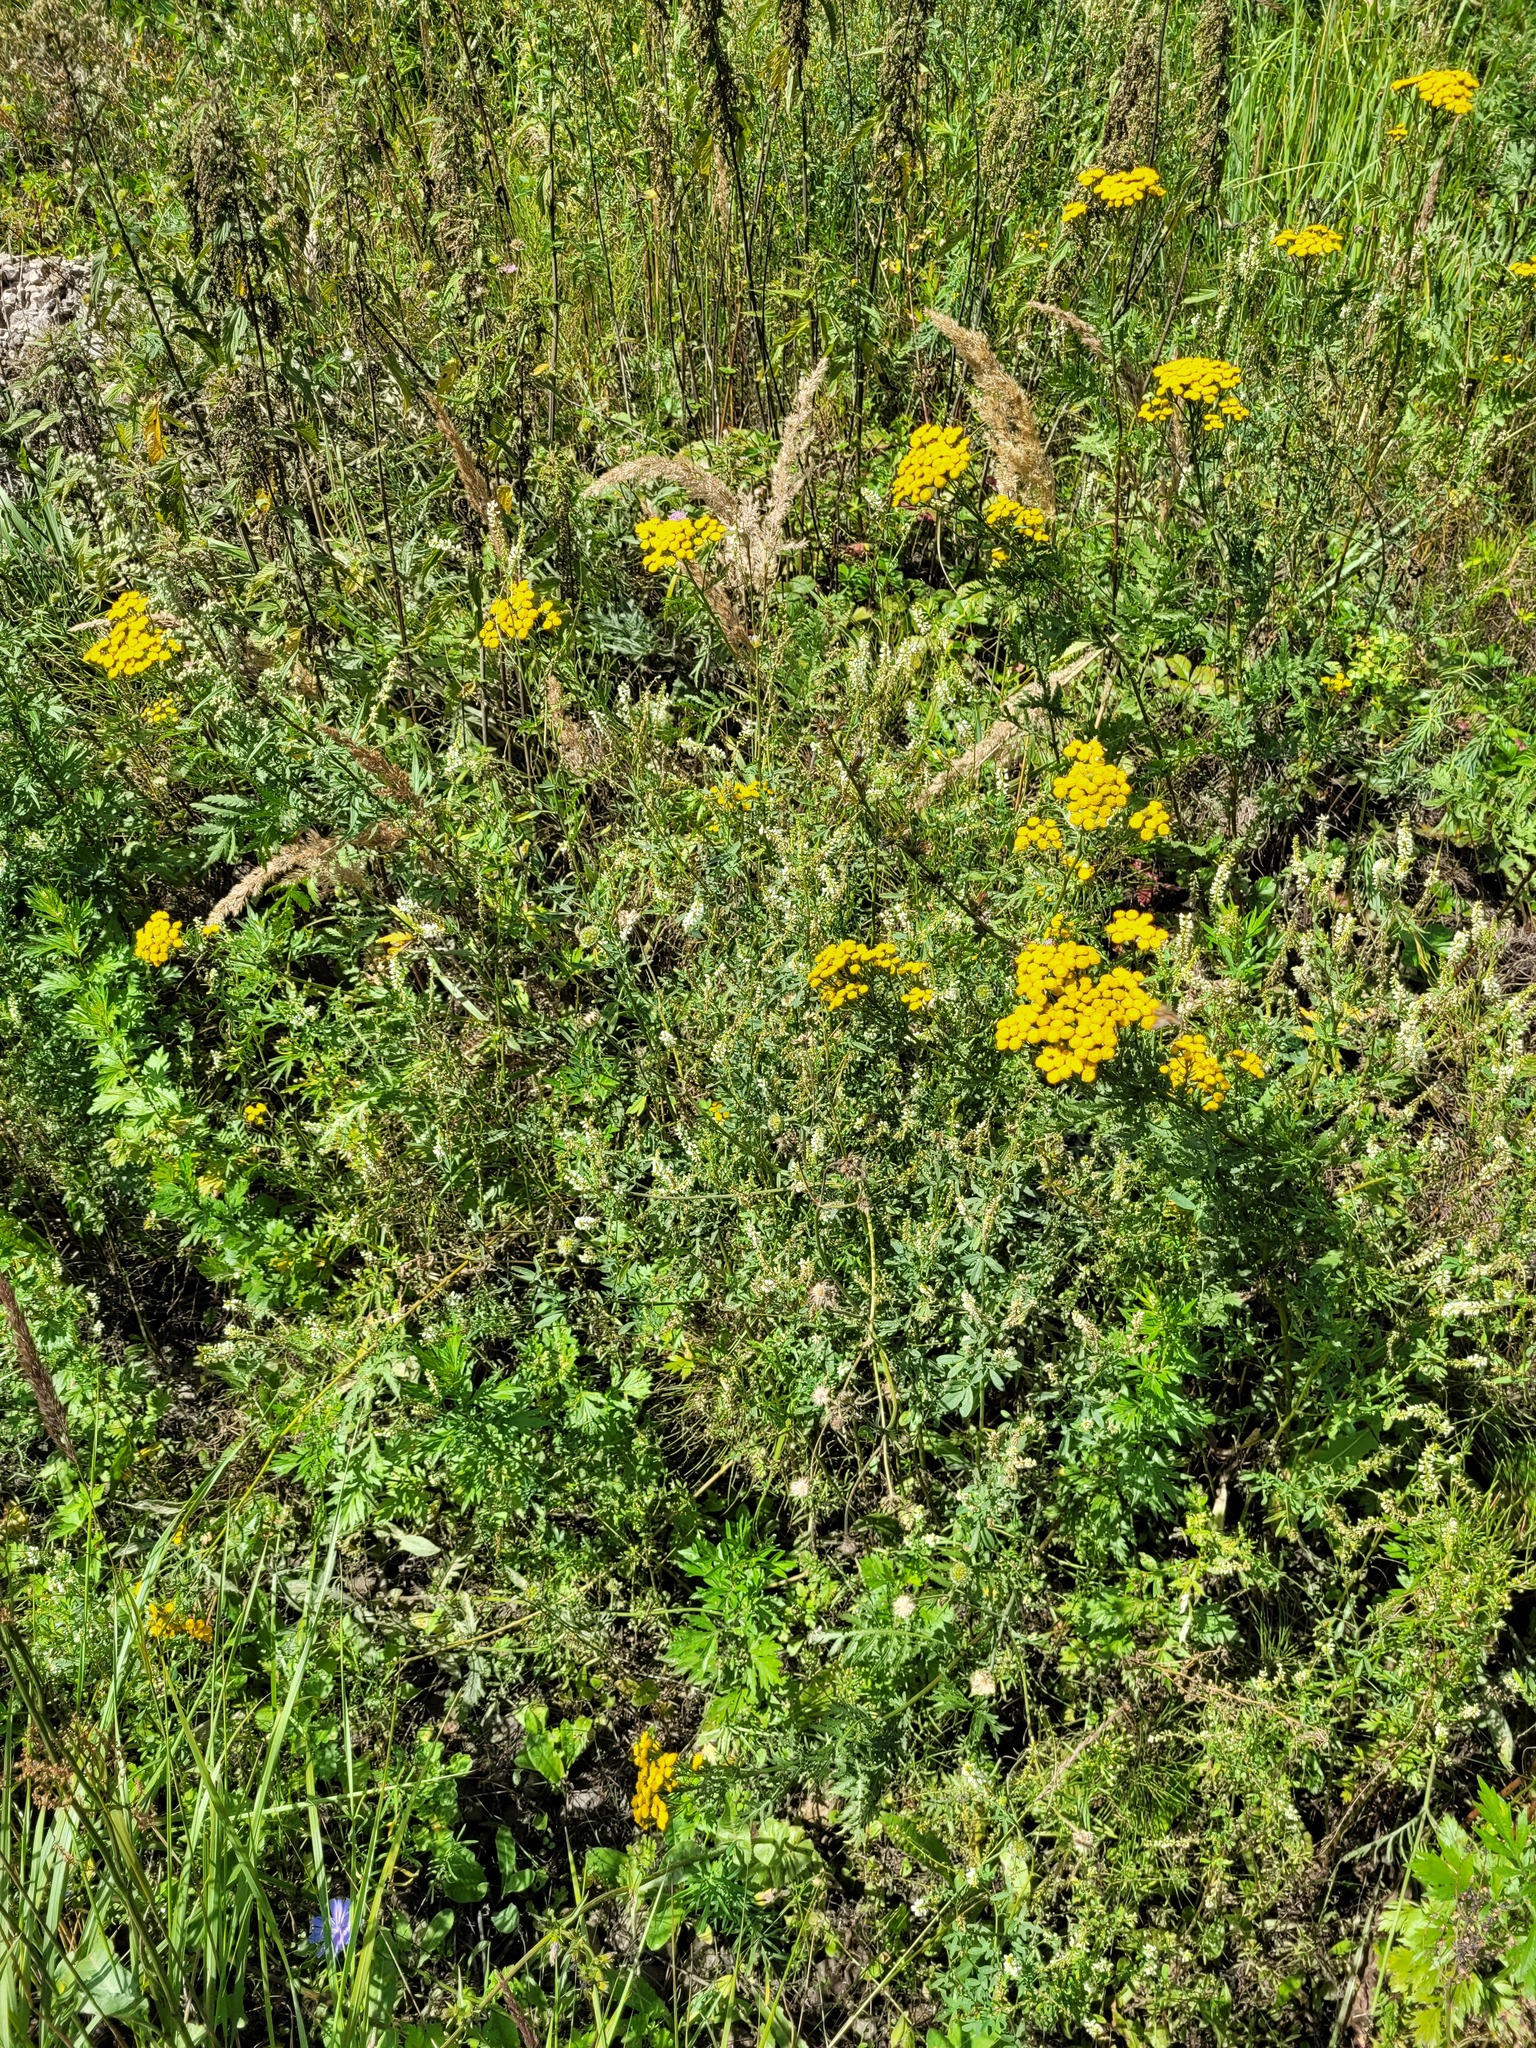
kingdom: Plantae
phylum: Tracheophyta
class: Magnoliopsida
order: Fabales
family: Fabaceae
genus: Melilotus
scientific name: Melilotus albus
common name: White melilot
